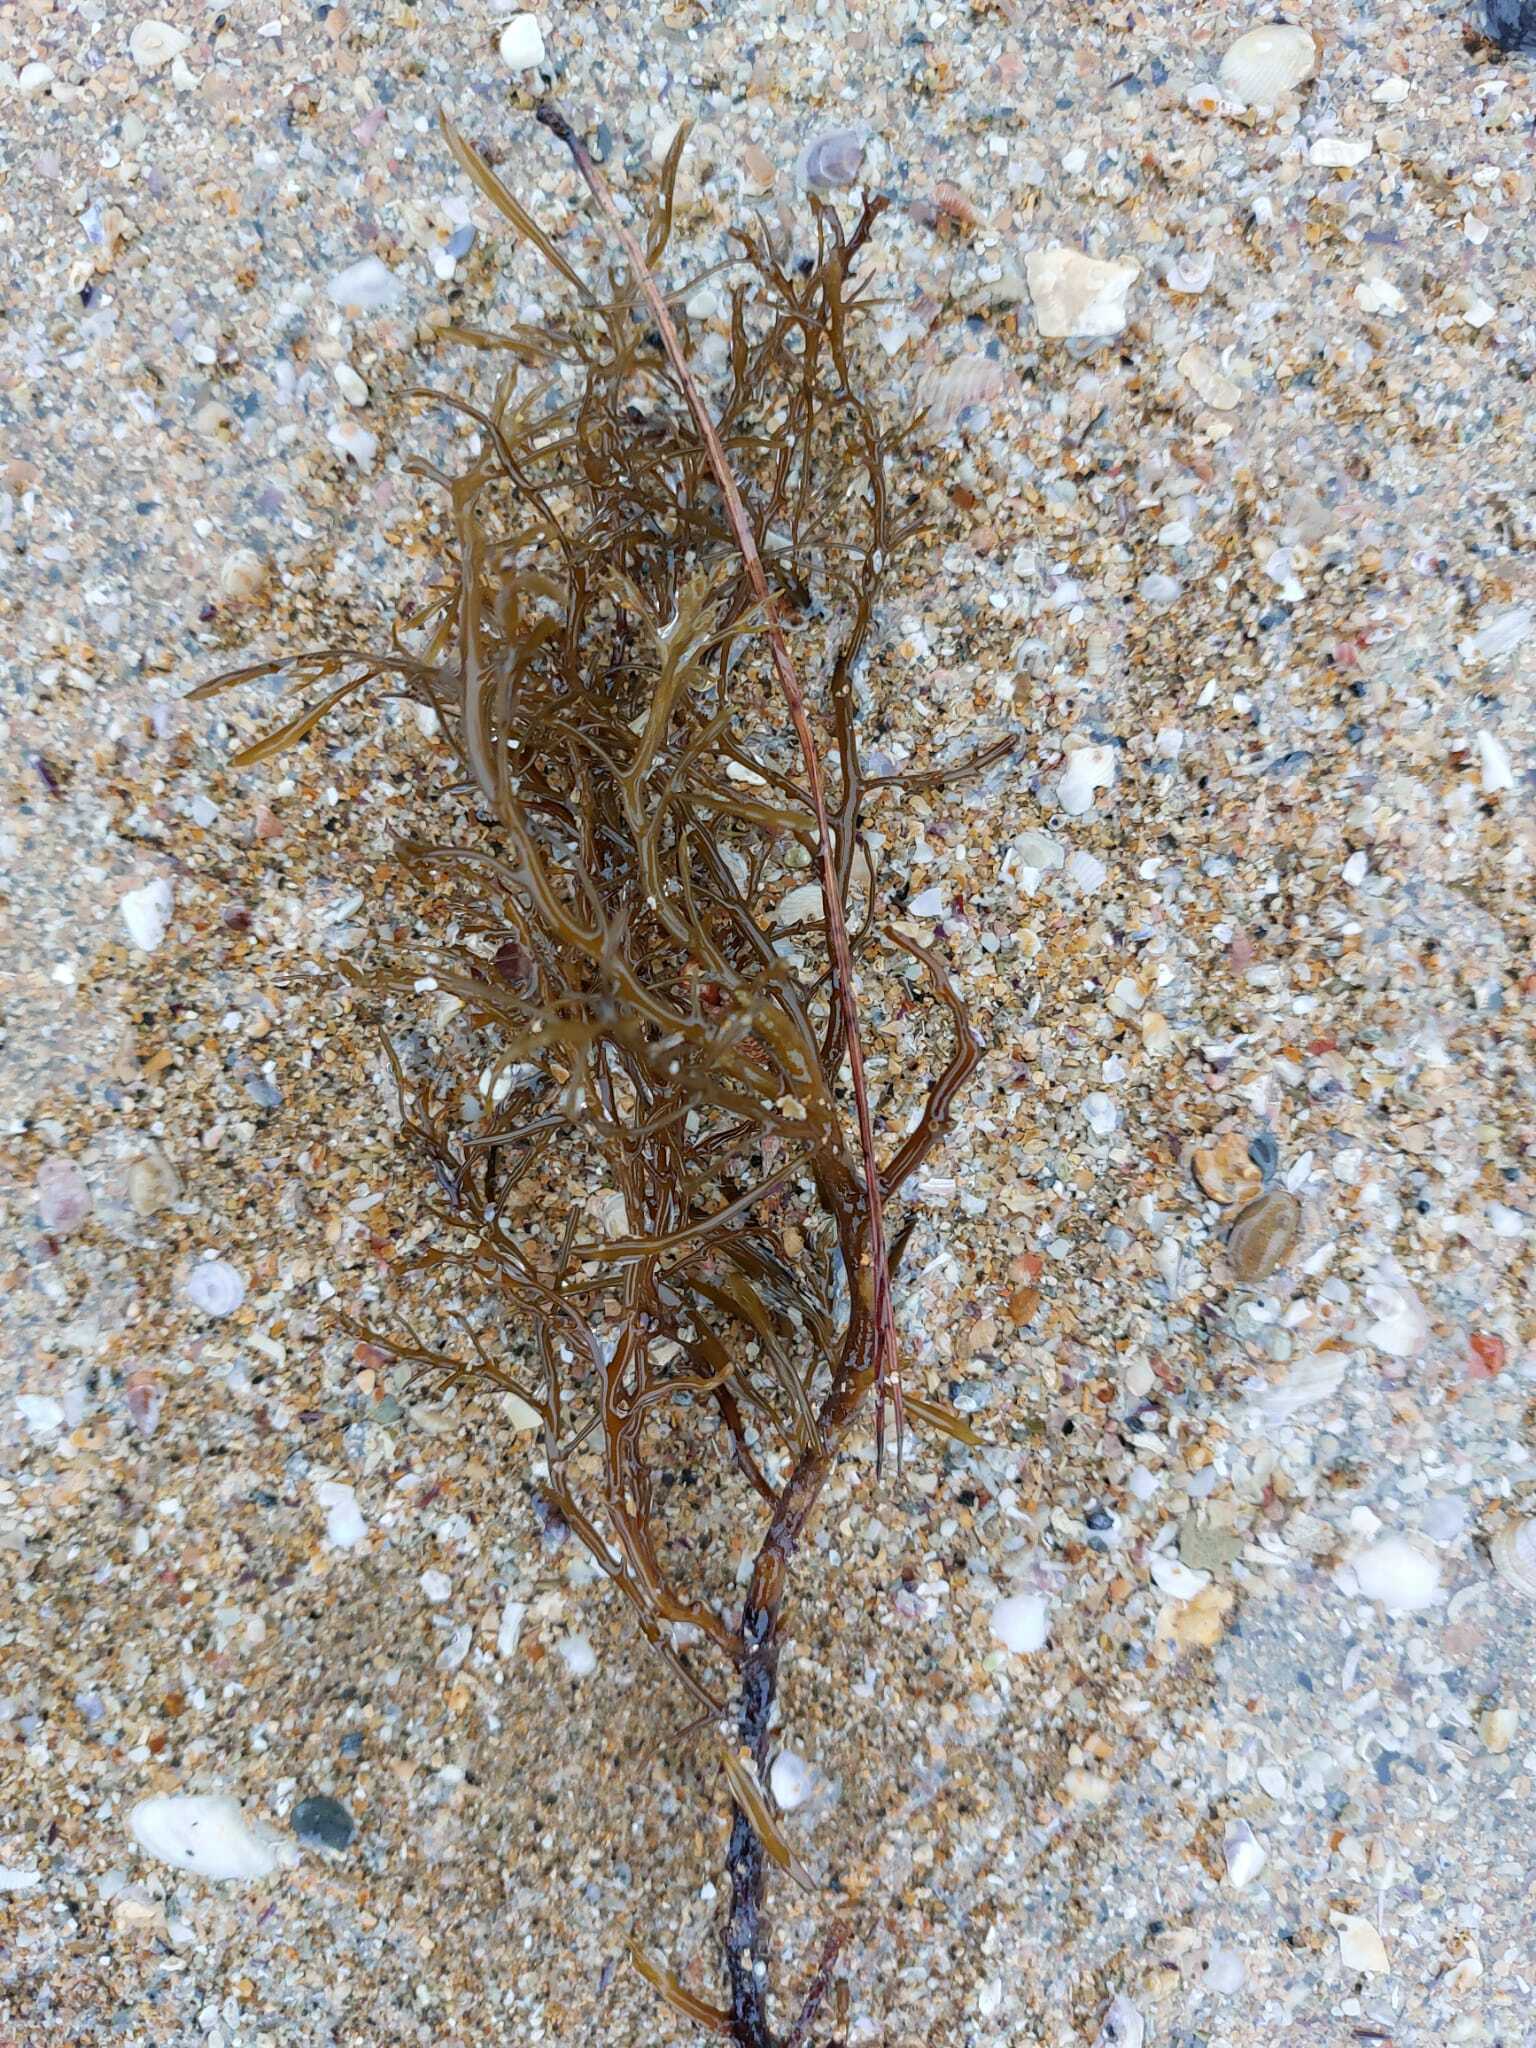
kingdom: Chromista
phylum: Ochrophyta
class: Phaeophyceae
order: Fucales
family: Sargassaceae
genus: Cystoseira
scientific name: Cystoseira Gongolaria baccata
